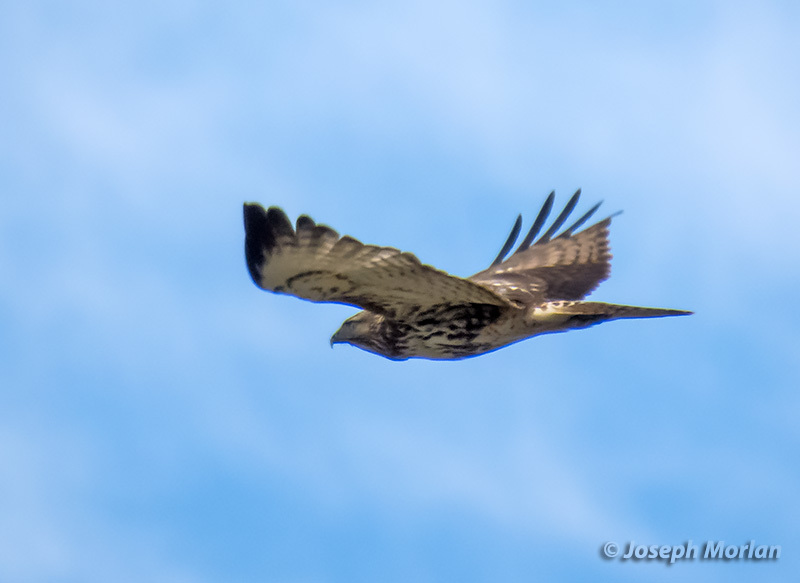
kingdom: Animalia
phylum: Chordata
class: Aves
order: Accipitriformes
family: Accipitridae
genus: Buteo
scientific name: Buteo jamaicensis
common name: Red-tailed hawk
